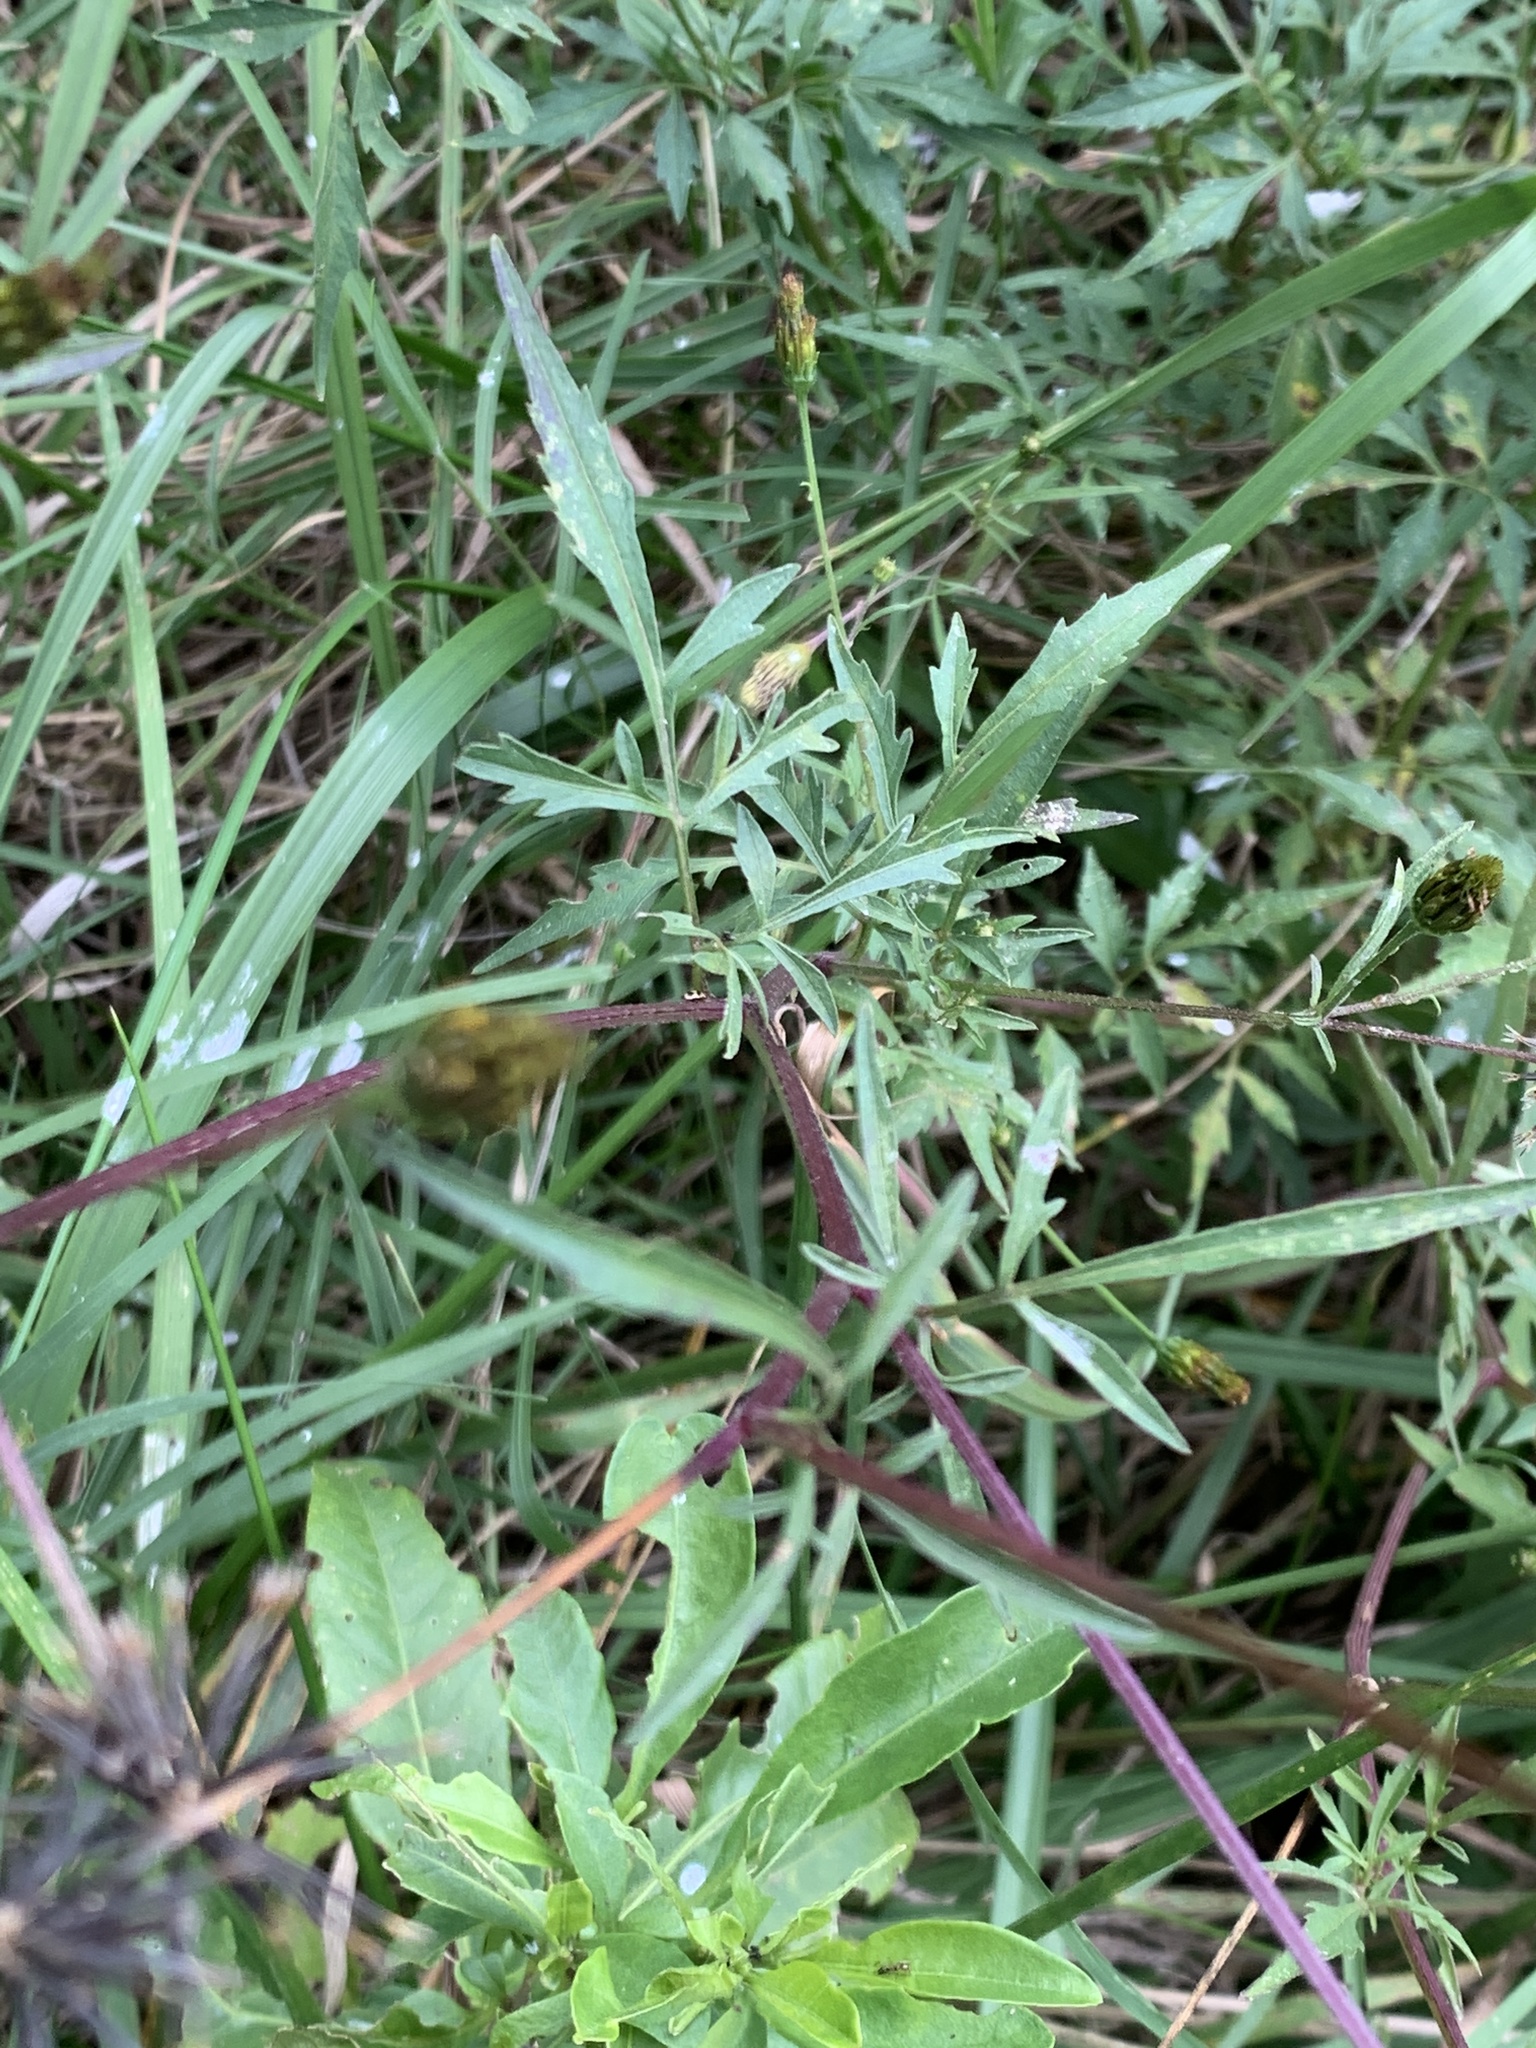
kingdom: Plantae
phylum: Tracheophyta
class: Magnoliopsida
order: Asterales
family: Asteraceae
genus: Bidens
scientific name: Bidens subalternans
